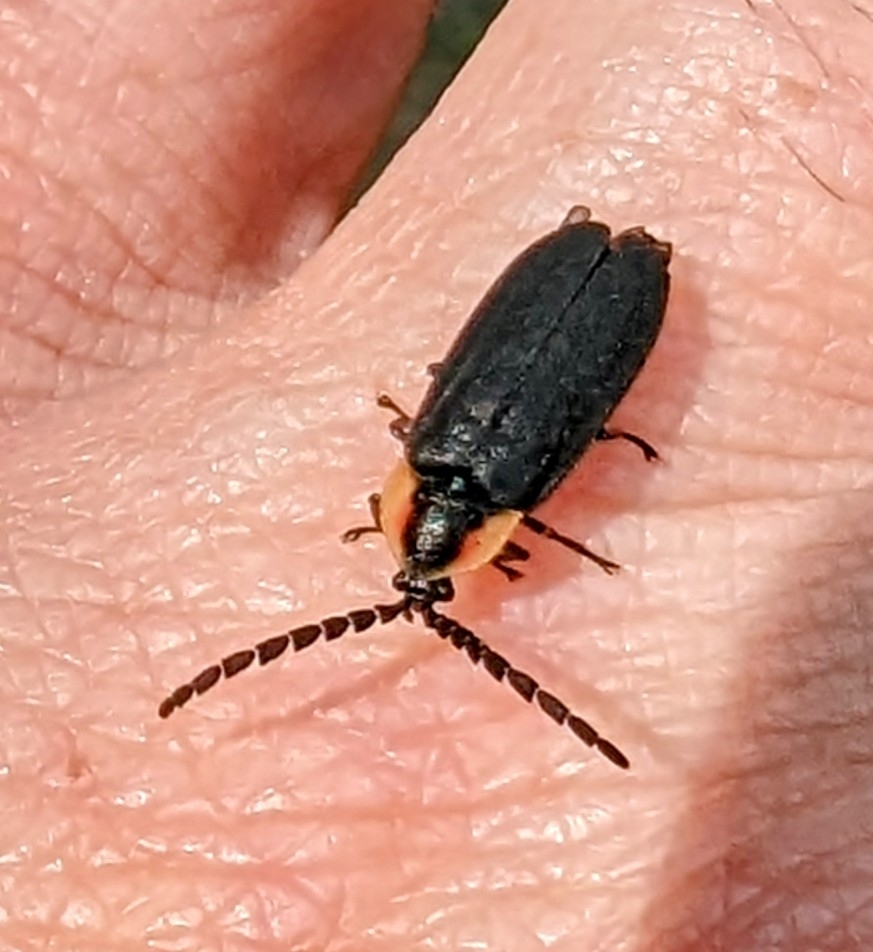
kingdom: Animalia
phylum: Arthropoda
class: Insecta
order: Coleoptera
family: Lampyridae
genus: Lucidota
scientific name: Lucidota atra
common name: Black firefly
